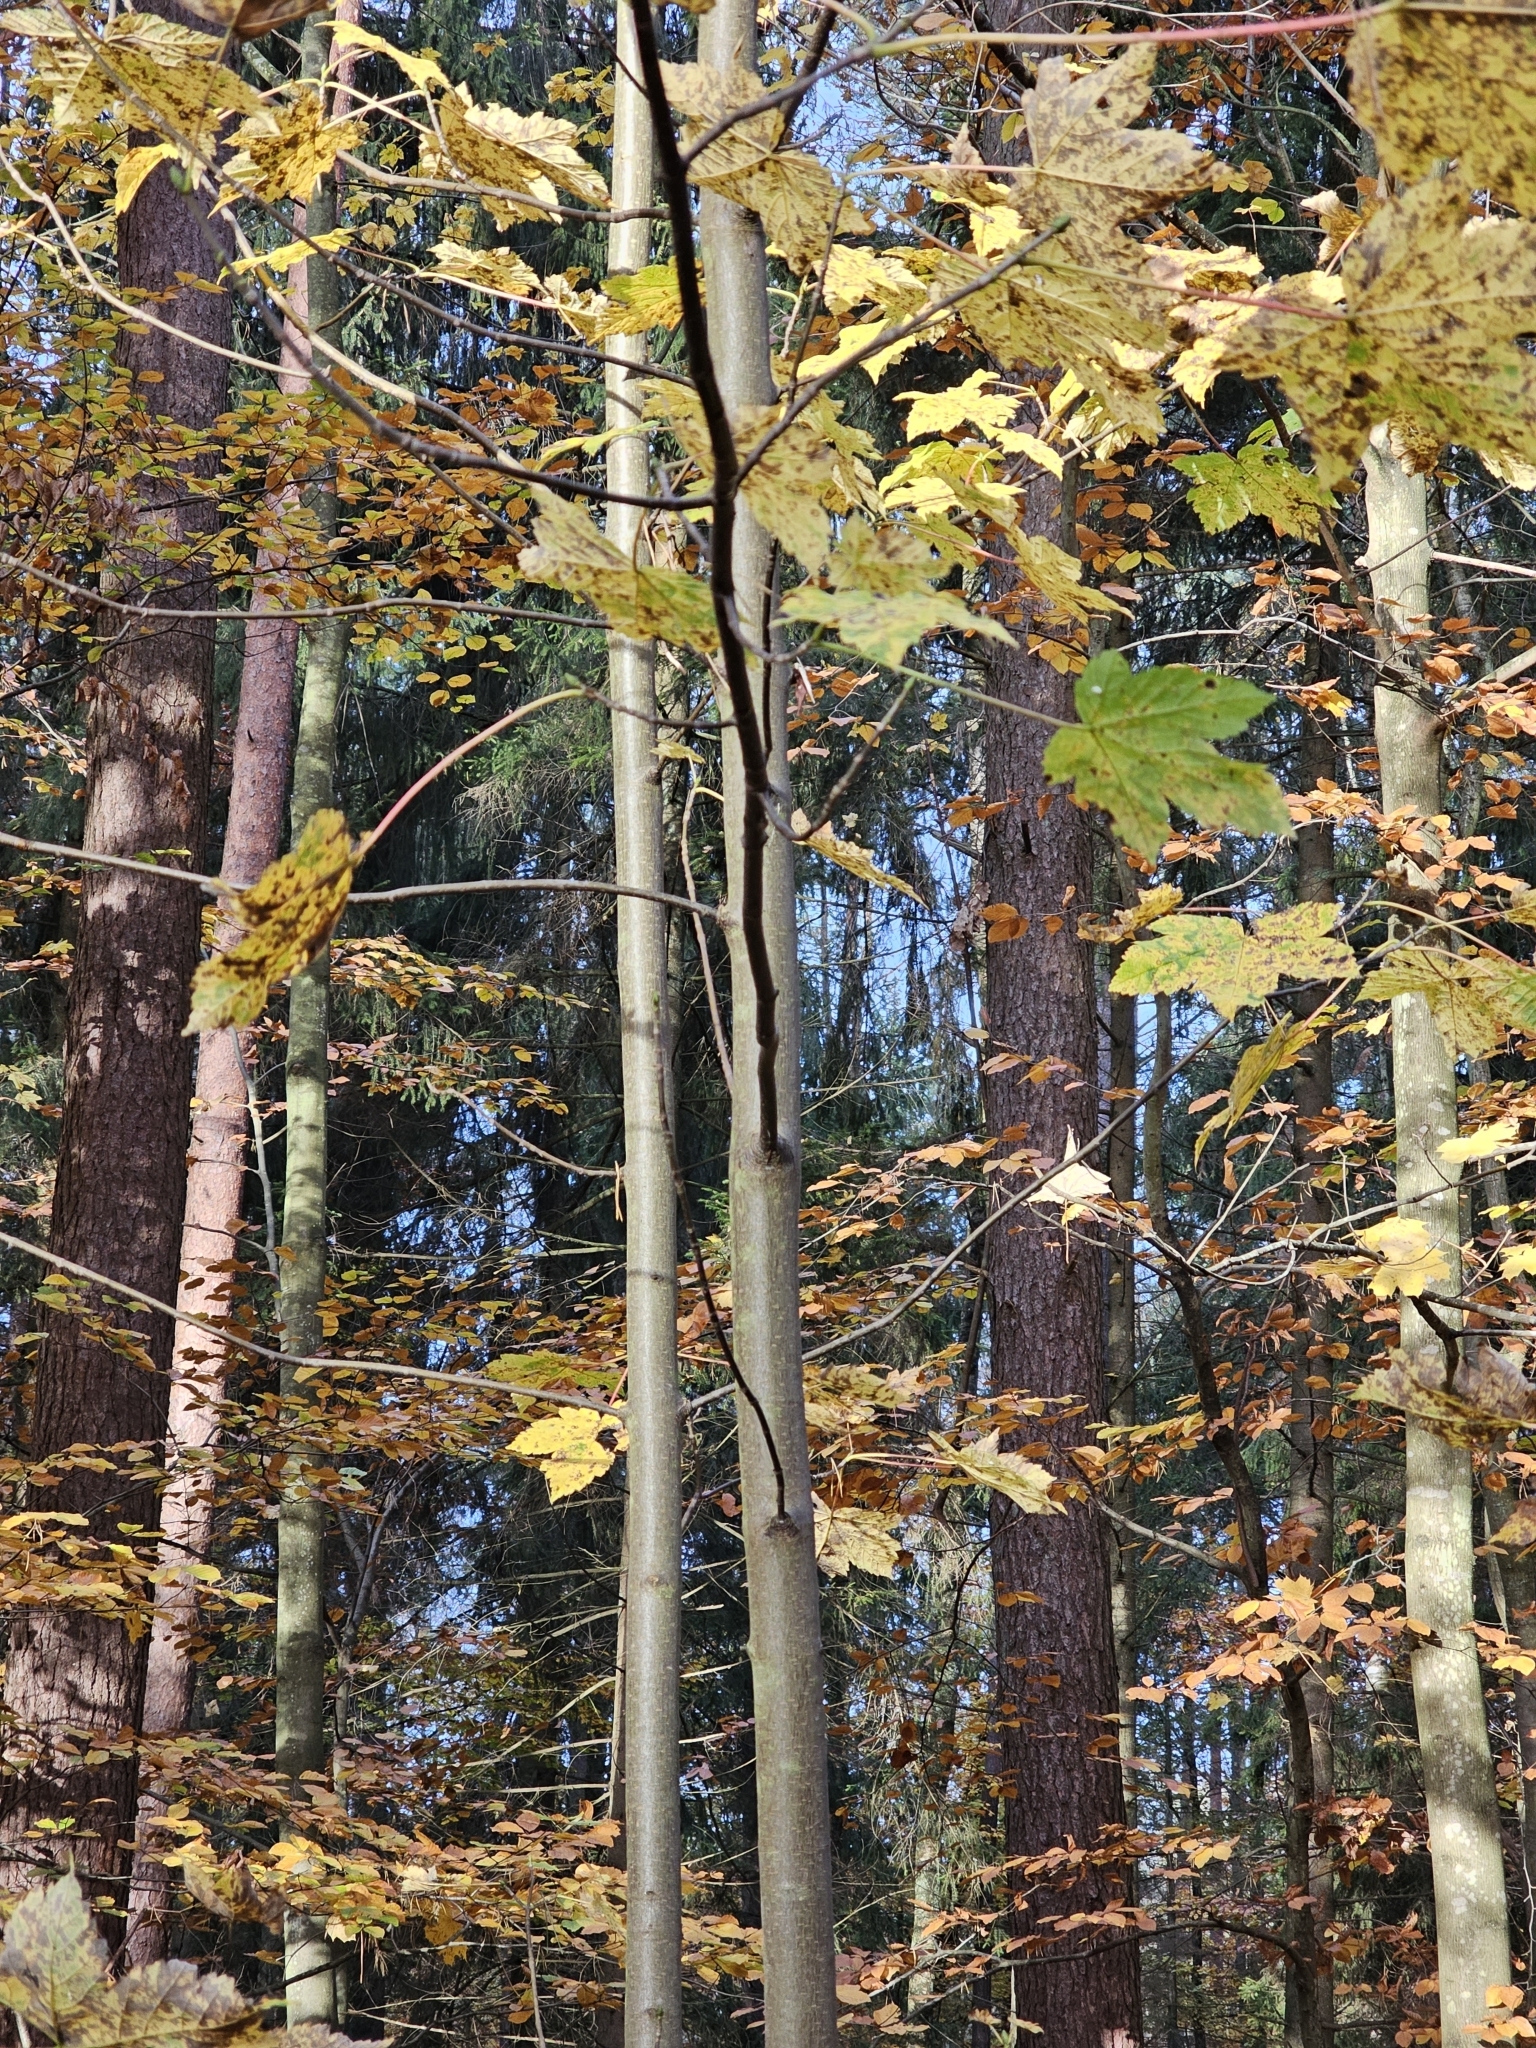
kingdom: Plantae
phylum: Tracheophyta
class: Magnoliopsida
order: Sapindales
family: Sapindaceae
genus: Acer
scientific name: Acer pseudoplatanus
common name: Sycamore
